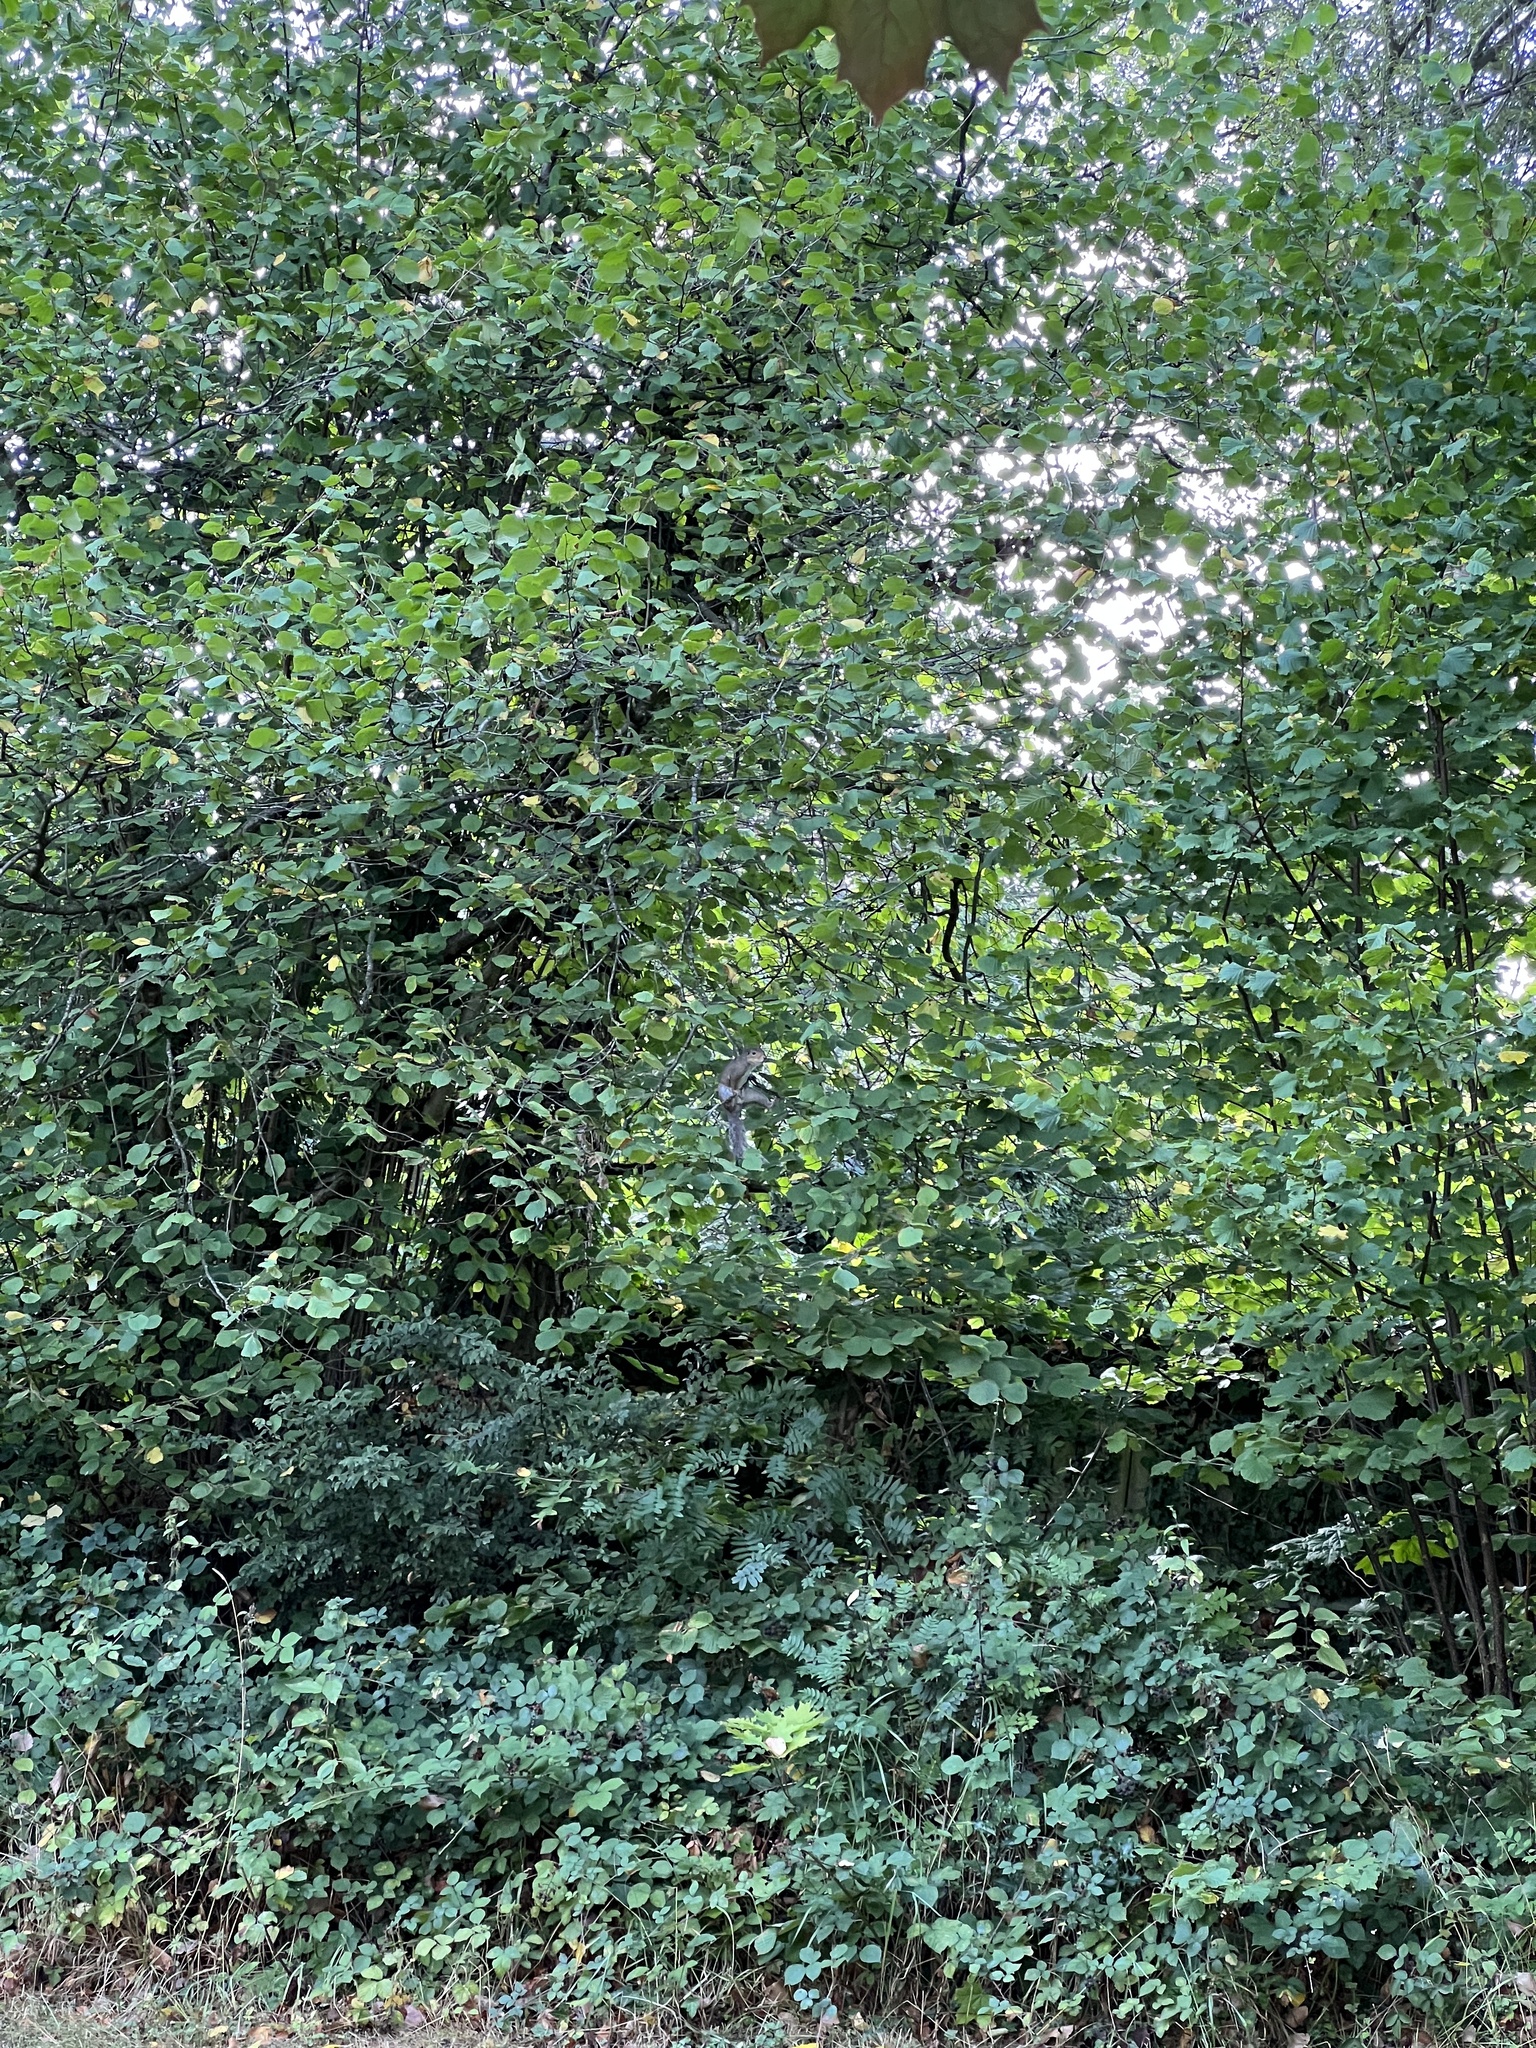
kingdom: Animalia
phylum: Chordata
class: Mammalia
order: Rodentia
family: Sciuridae
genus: Sciurus
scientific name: Sciurus carolinensis
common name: Eastern gray squirrel
